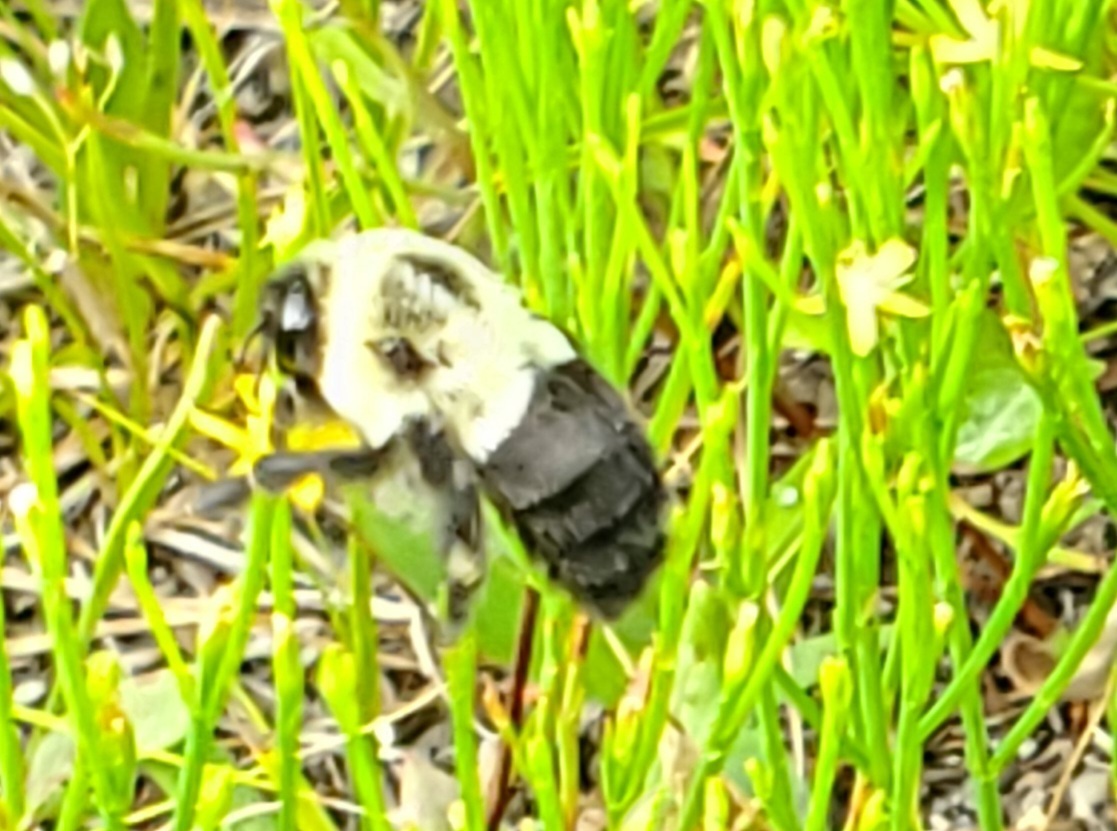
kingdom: Animalia
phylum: Arthropoda
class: Insecta
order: Hymenoptera
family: Apidae
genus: Bombus
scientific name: Bombus impatiens
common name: Common eastern bumble bee
